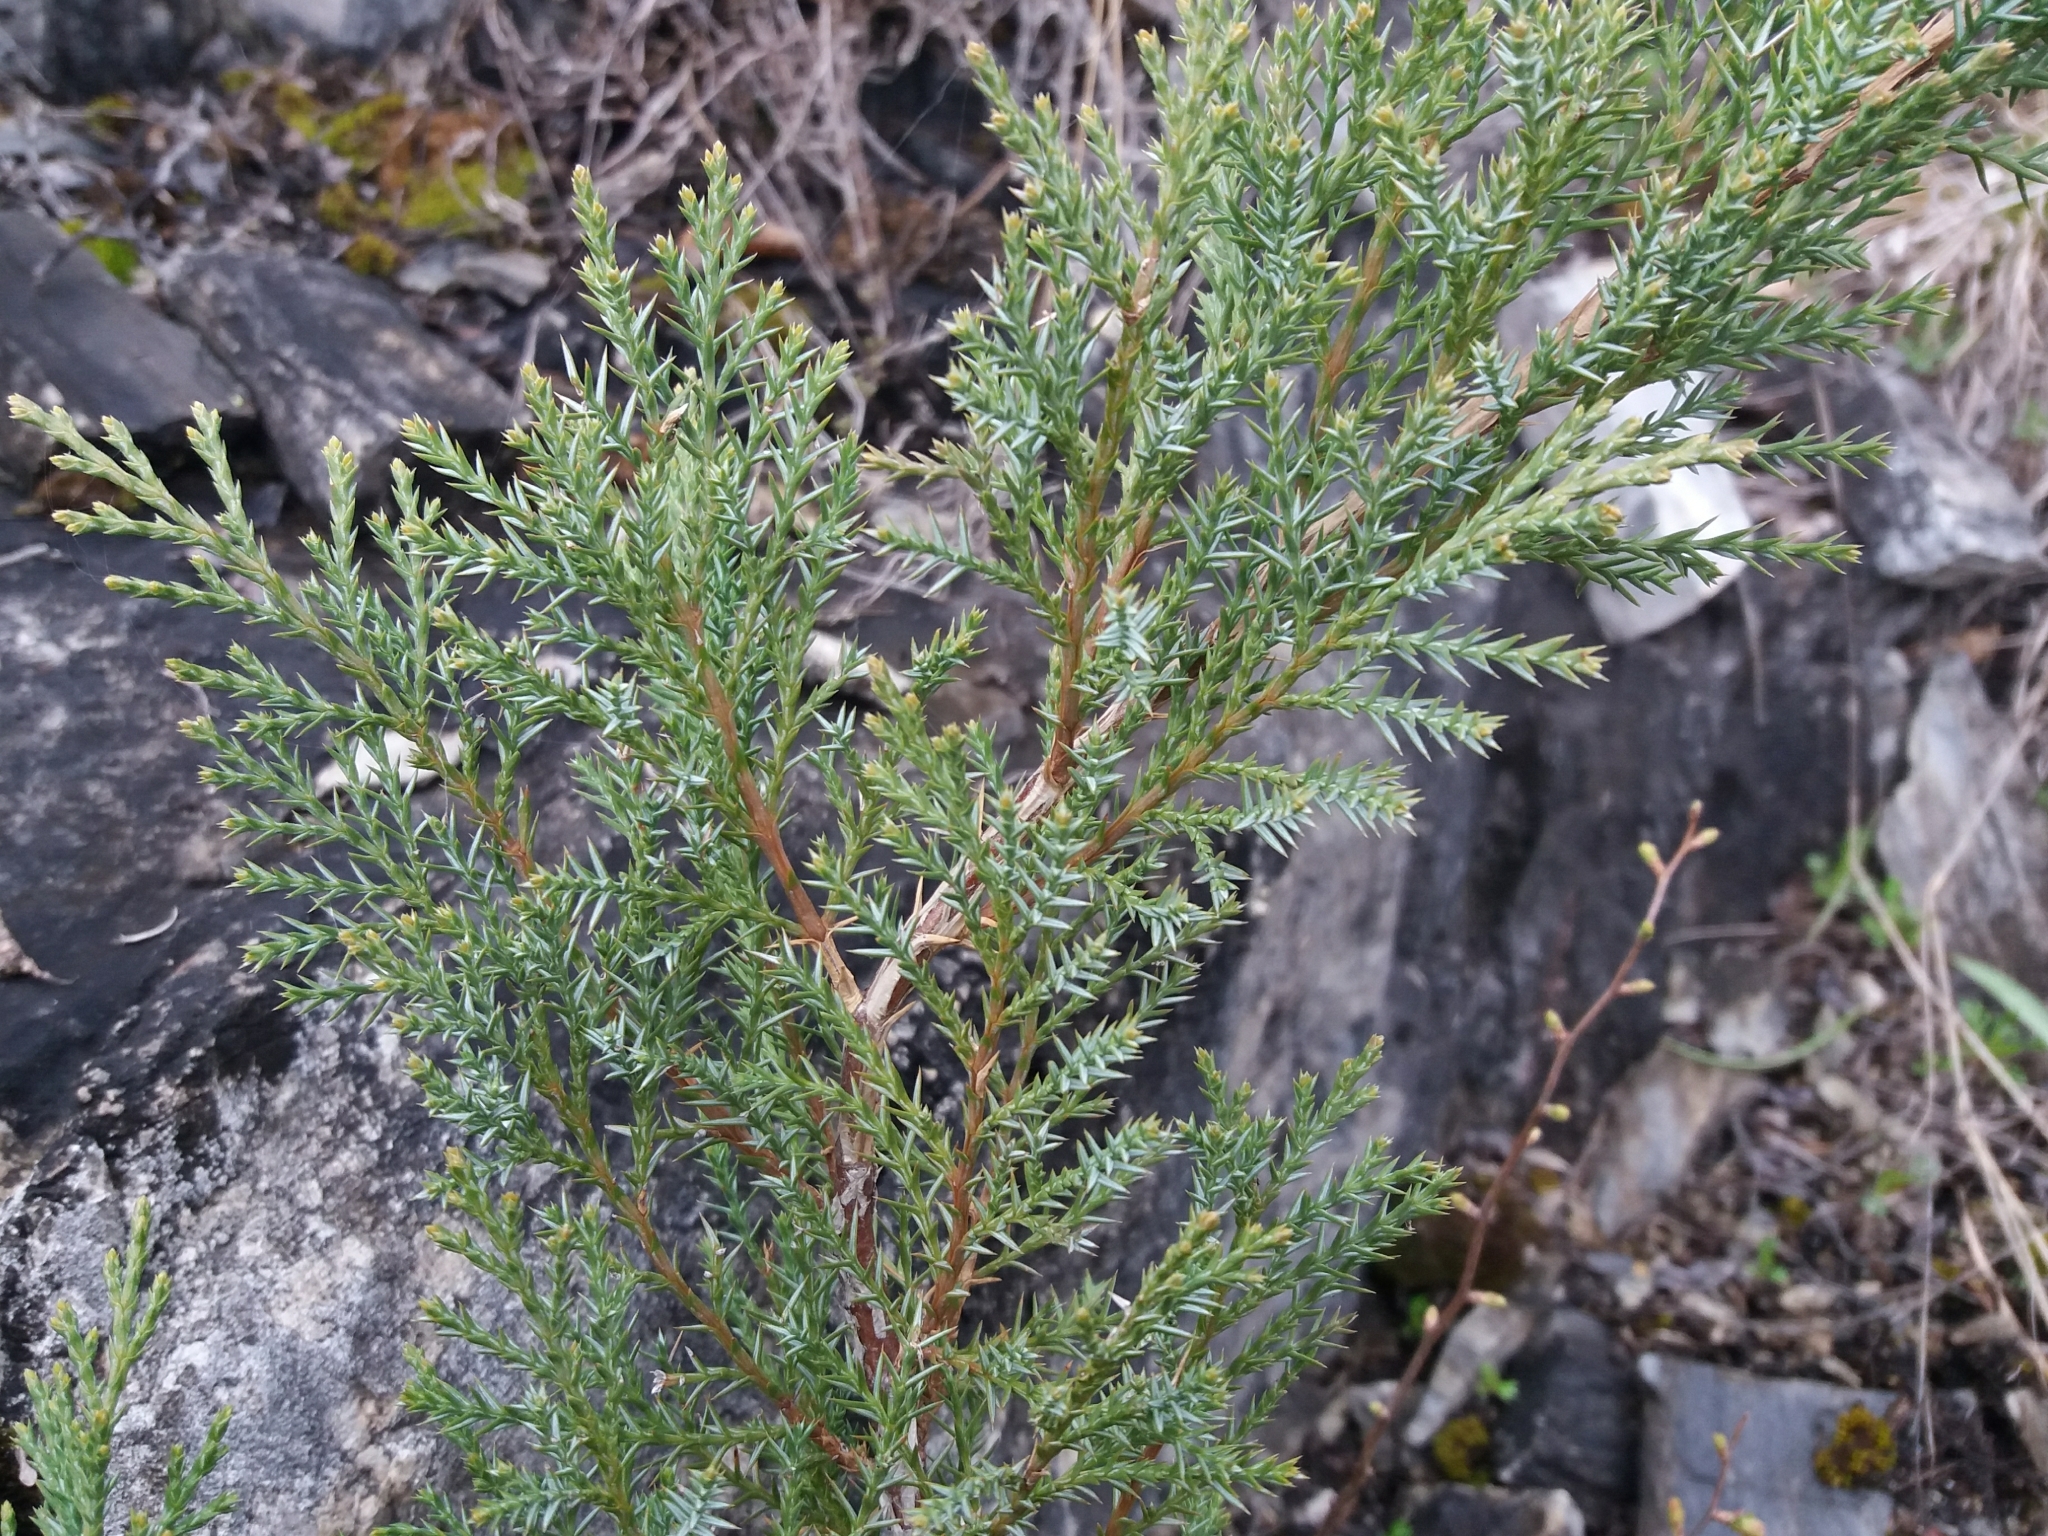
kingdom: Plantae
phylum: Tracheophyta
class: Pinopsida
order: Pinales
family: Cupressaceae
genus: Juniperus
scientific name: Juniperus sabina
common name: Savin
